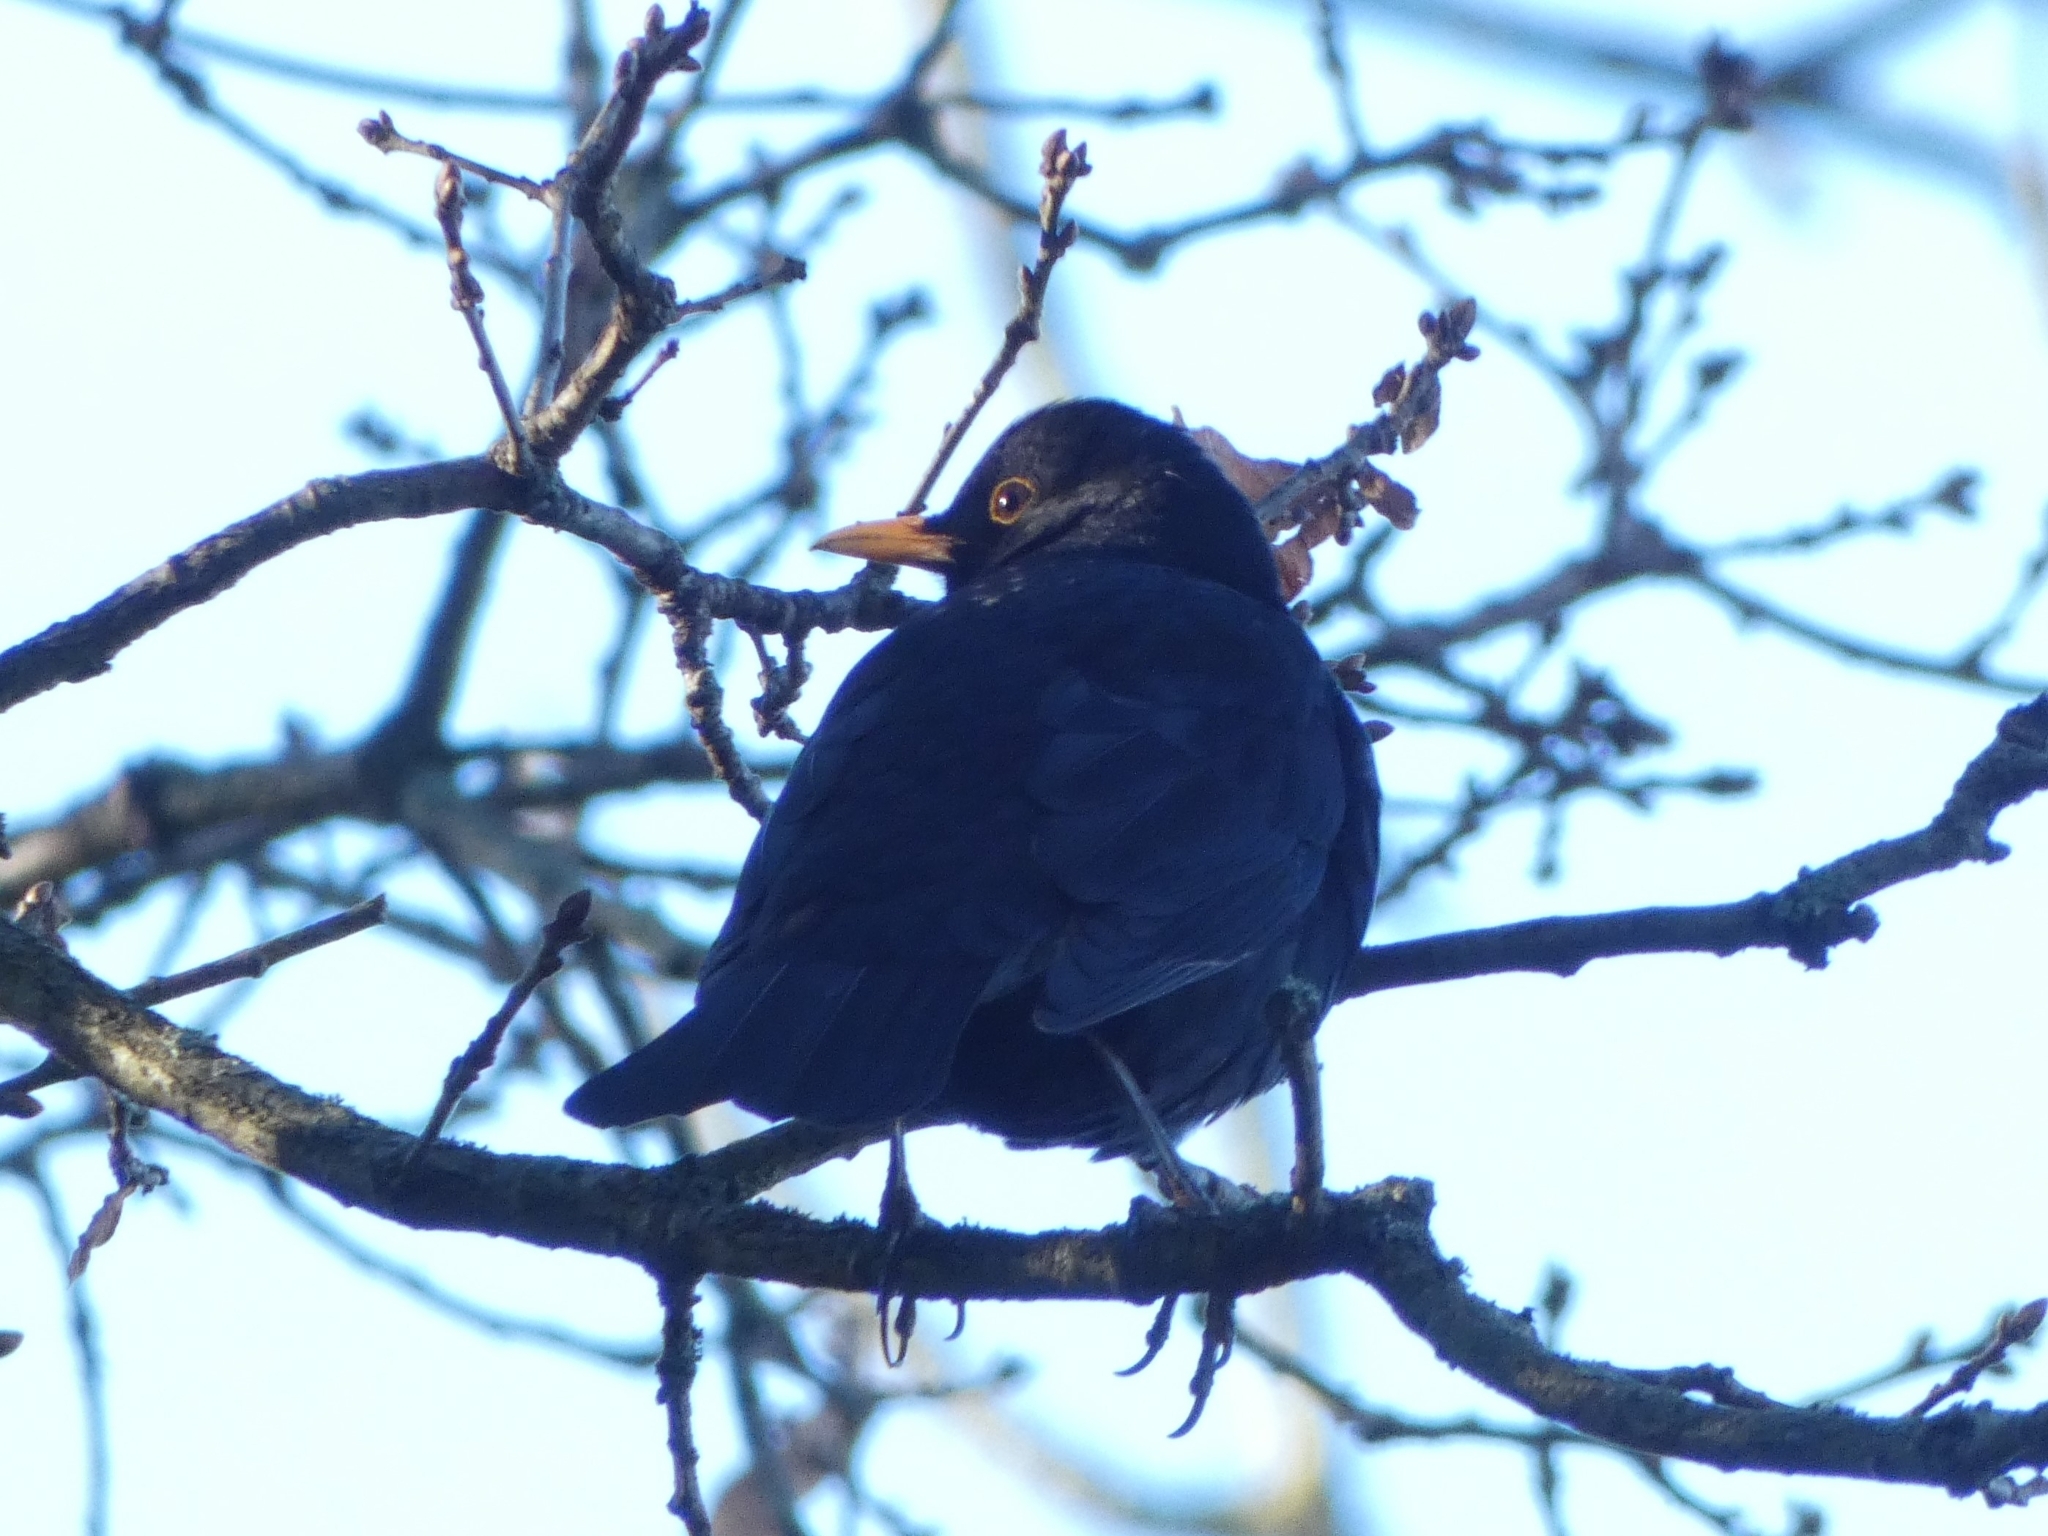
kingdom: Animalia
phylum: Chordata
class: Aves
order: Passeriformes
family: Turdidae
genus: Turdus
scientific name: Turdus merula
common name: Common blackbird
